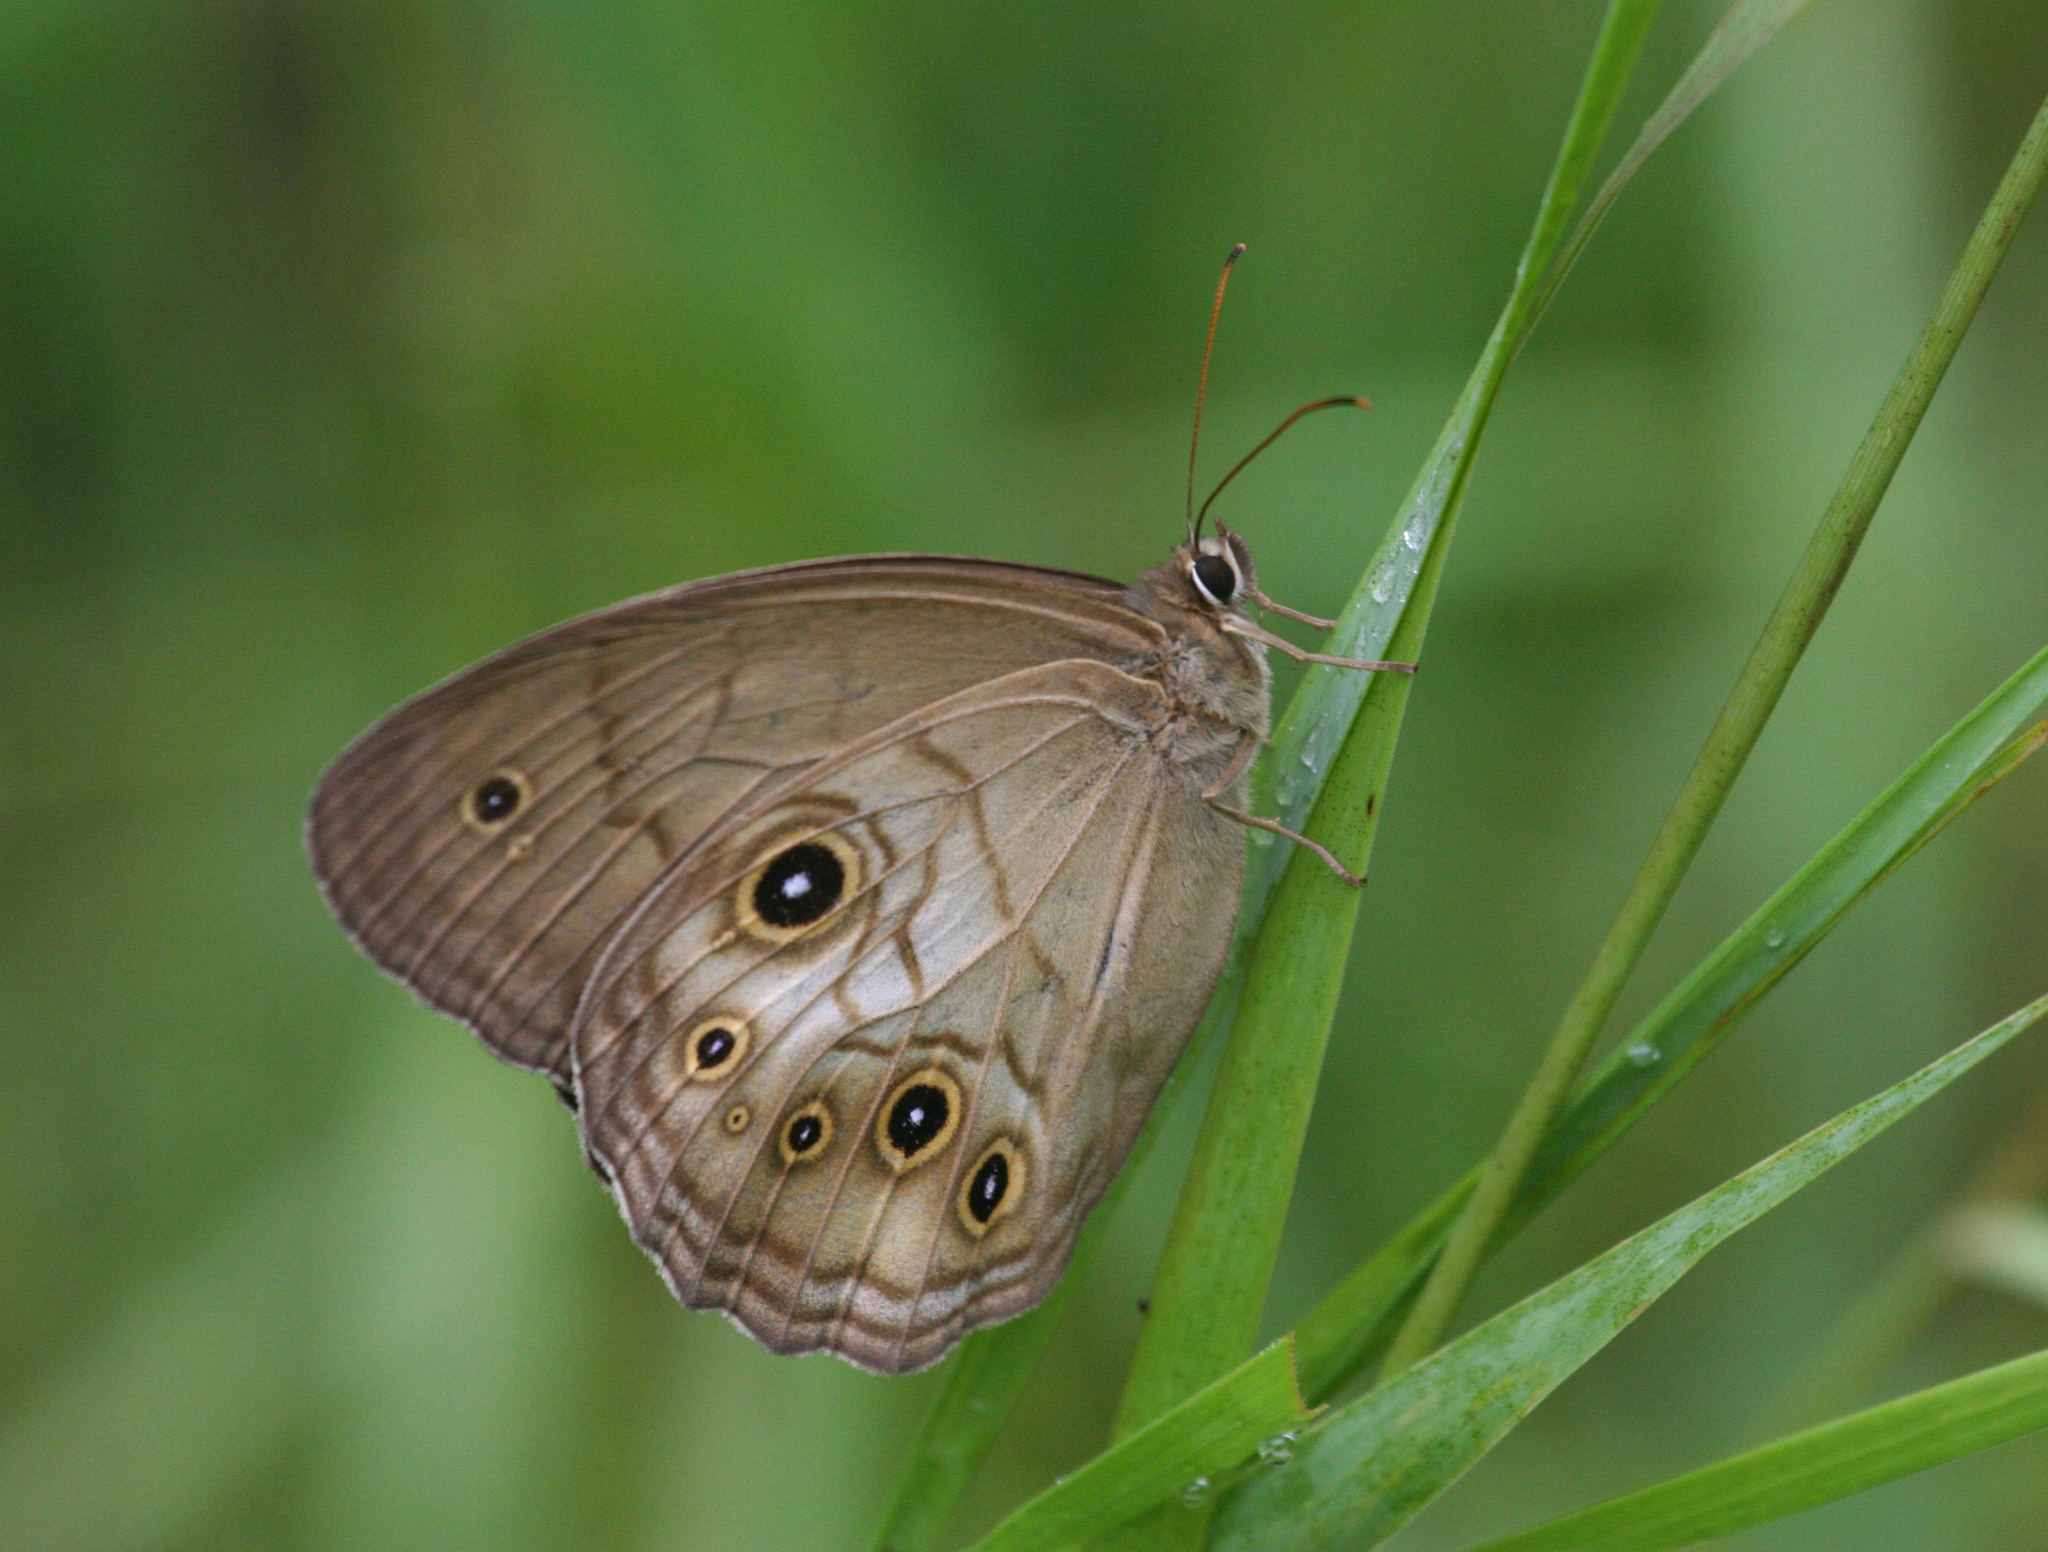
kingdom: Animalia
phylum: Arthropoda
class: Insecta
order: Lepidoptera
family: Nymphalidae
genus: Ninguta
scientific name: Ninguta schrenckii
